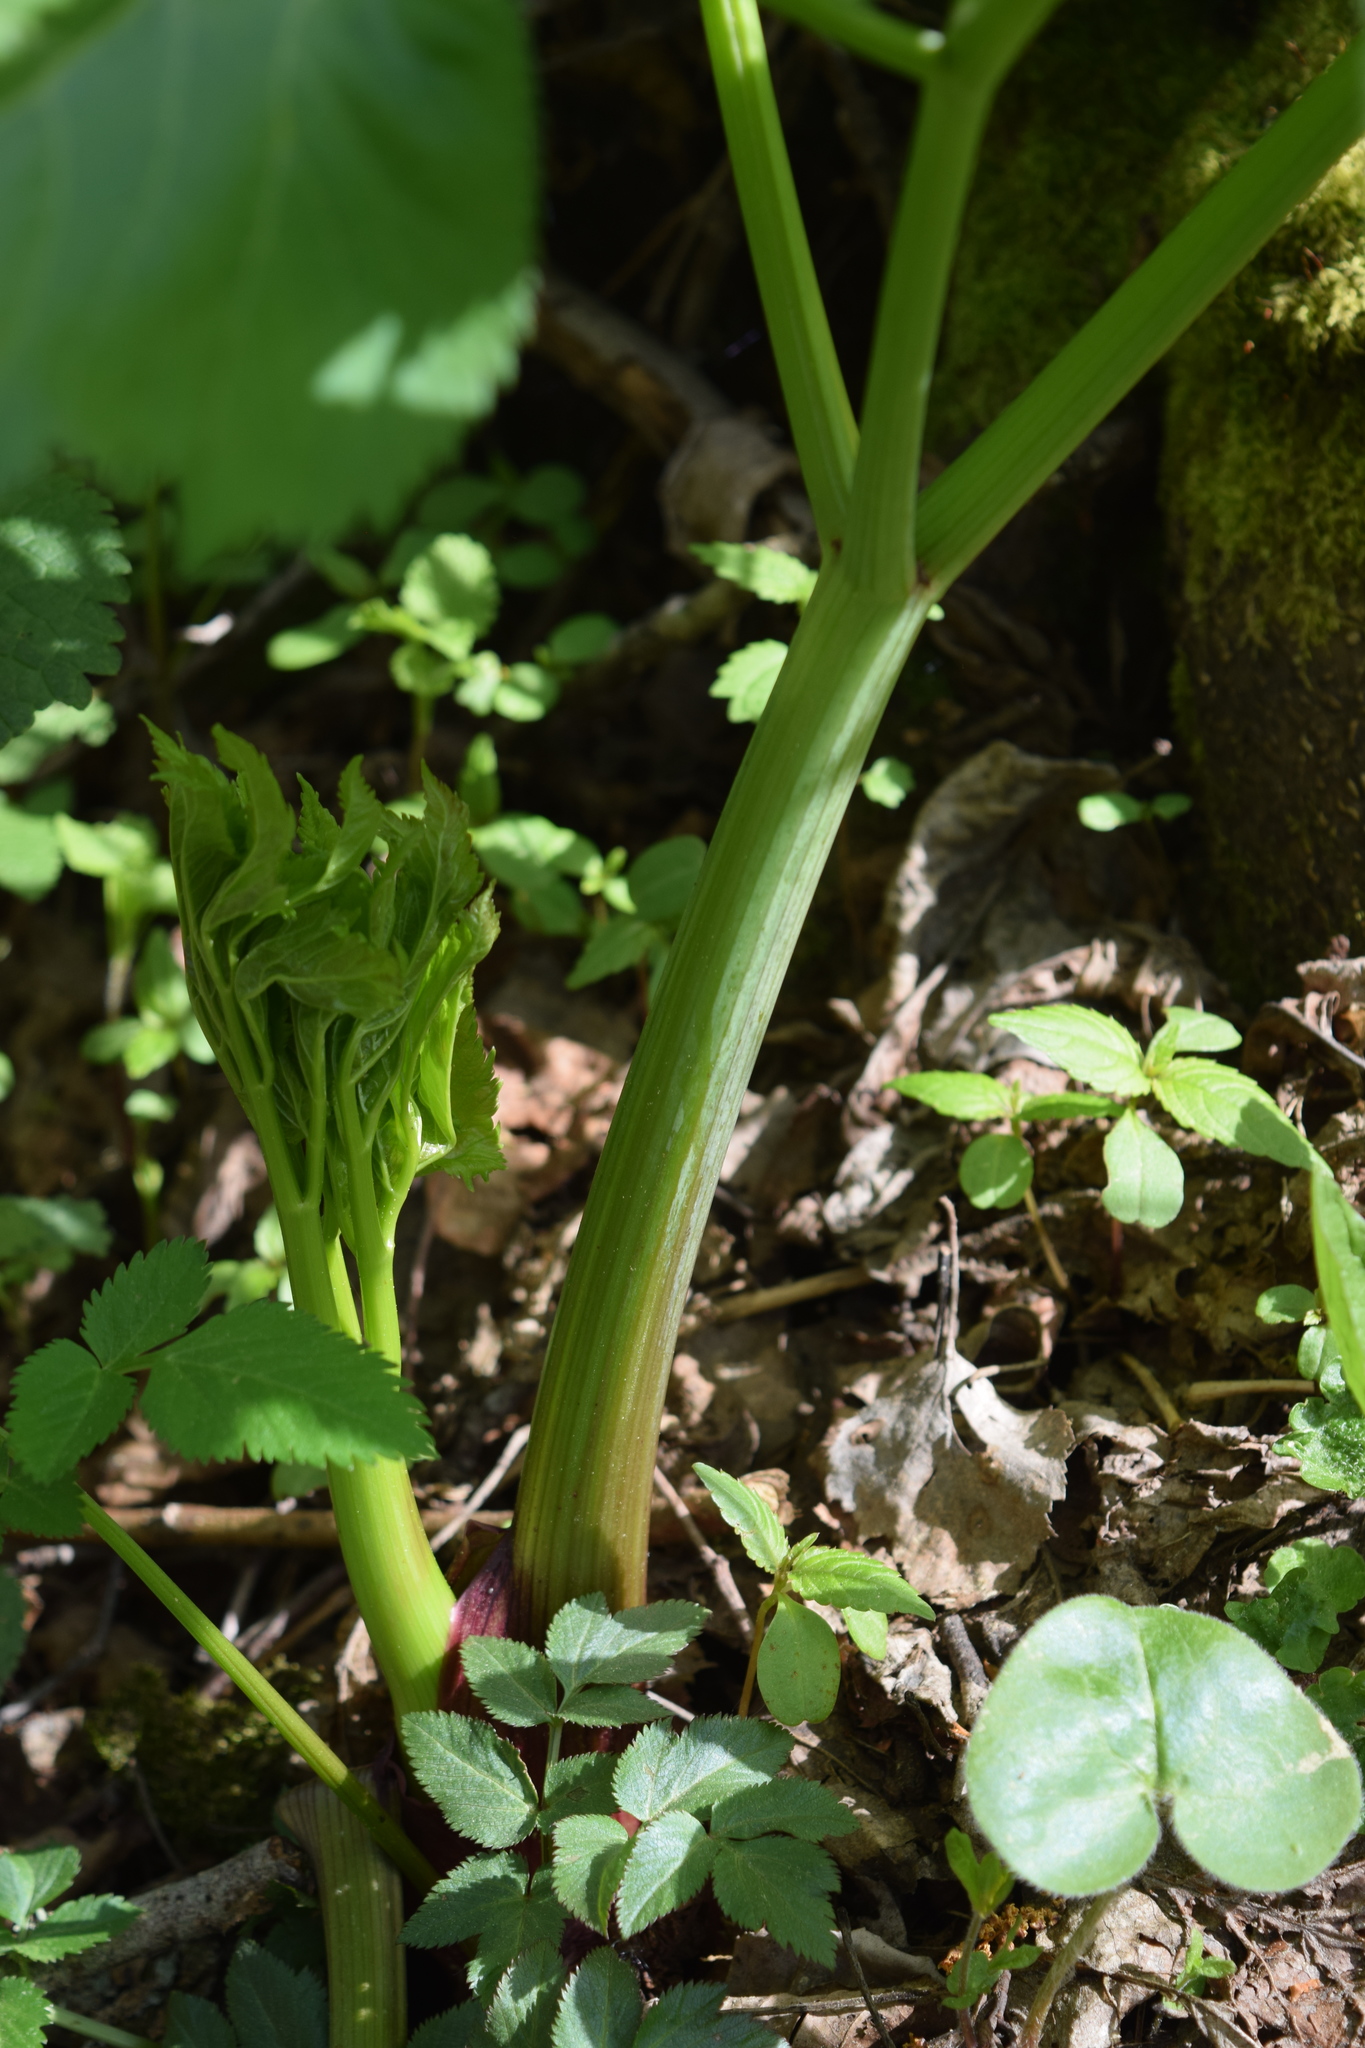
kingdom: Plantae
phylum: Tracheophyta
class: Magnoliopsida
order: Apiales
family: Apiaceae
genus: Angelica
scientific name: Angelica archangelica
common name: Garden angelica
